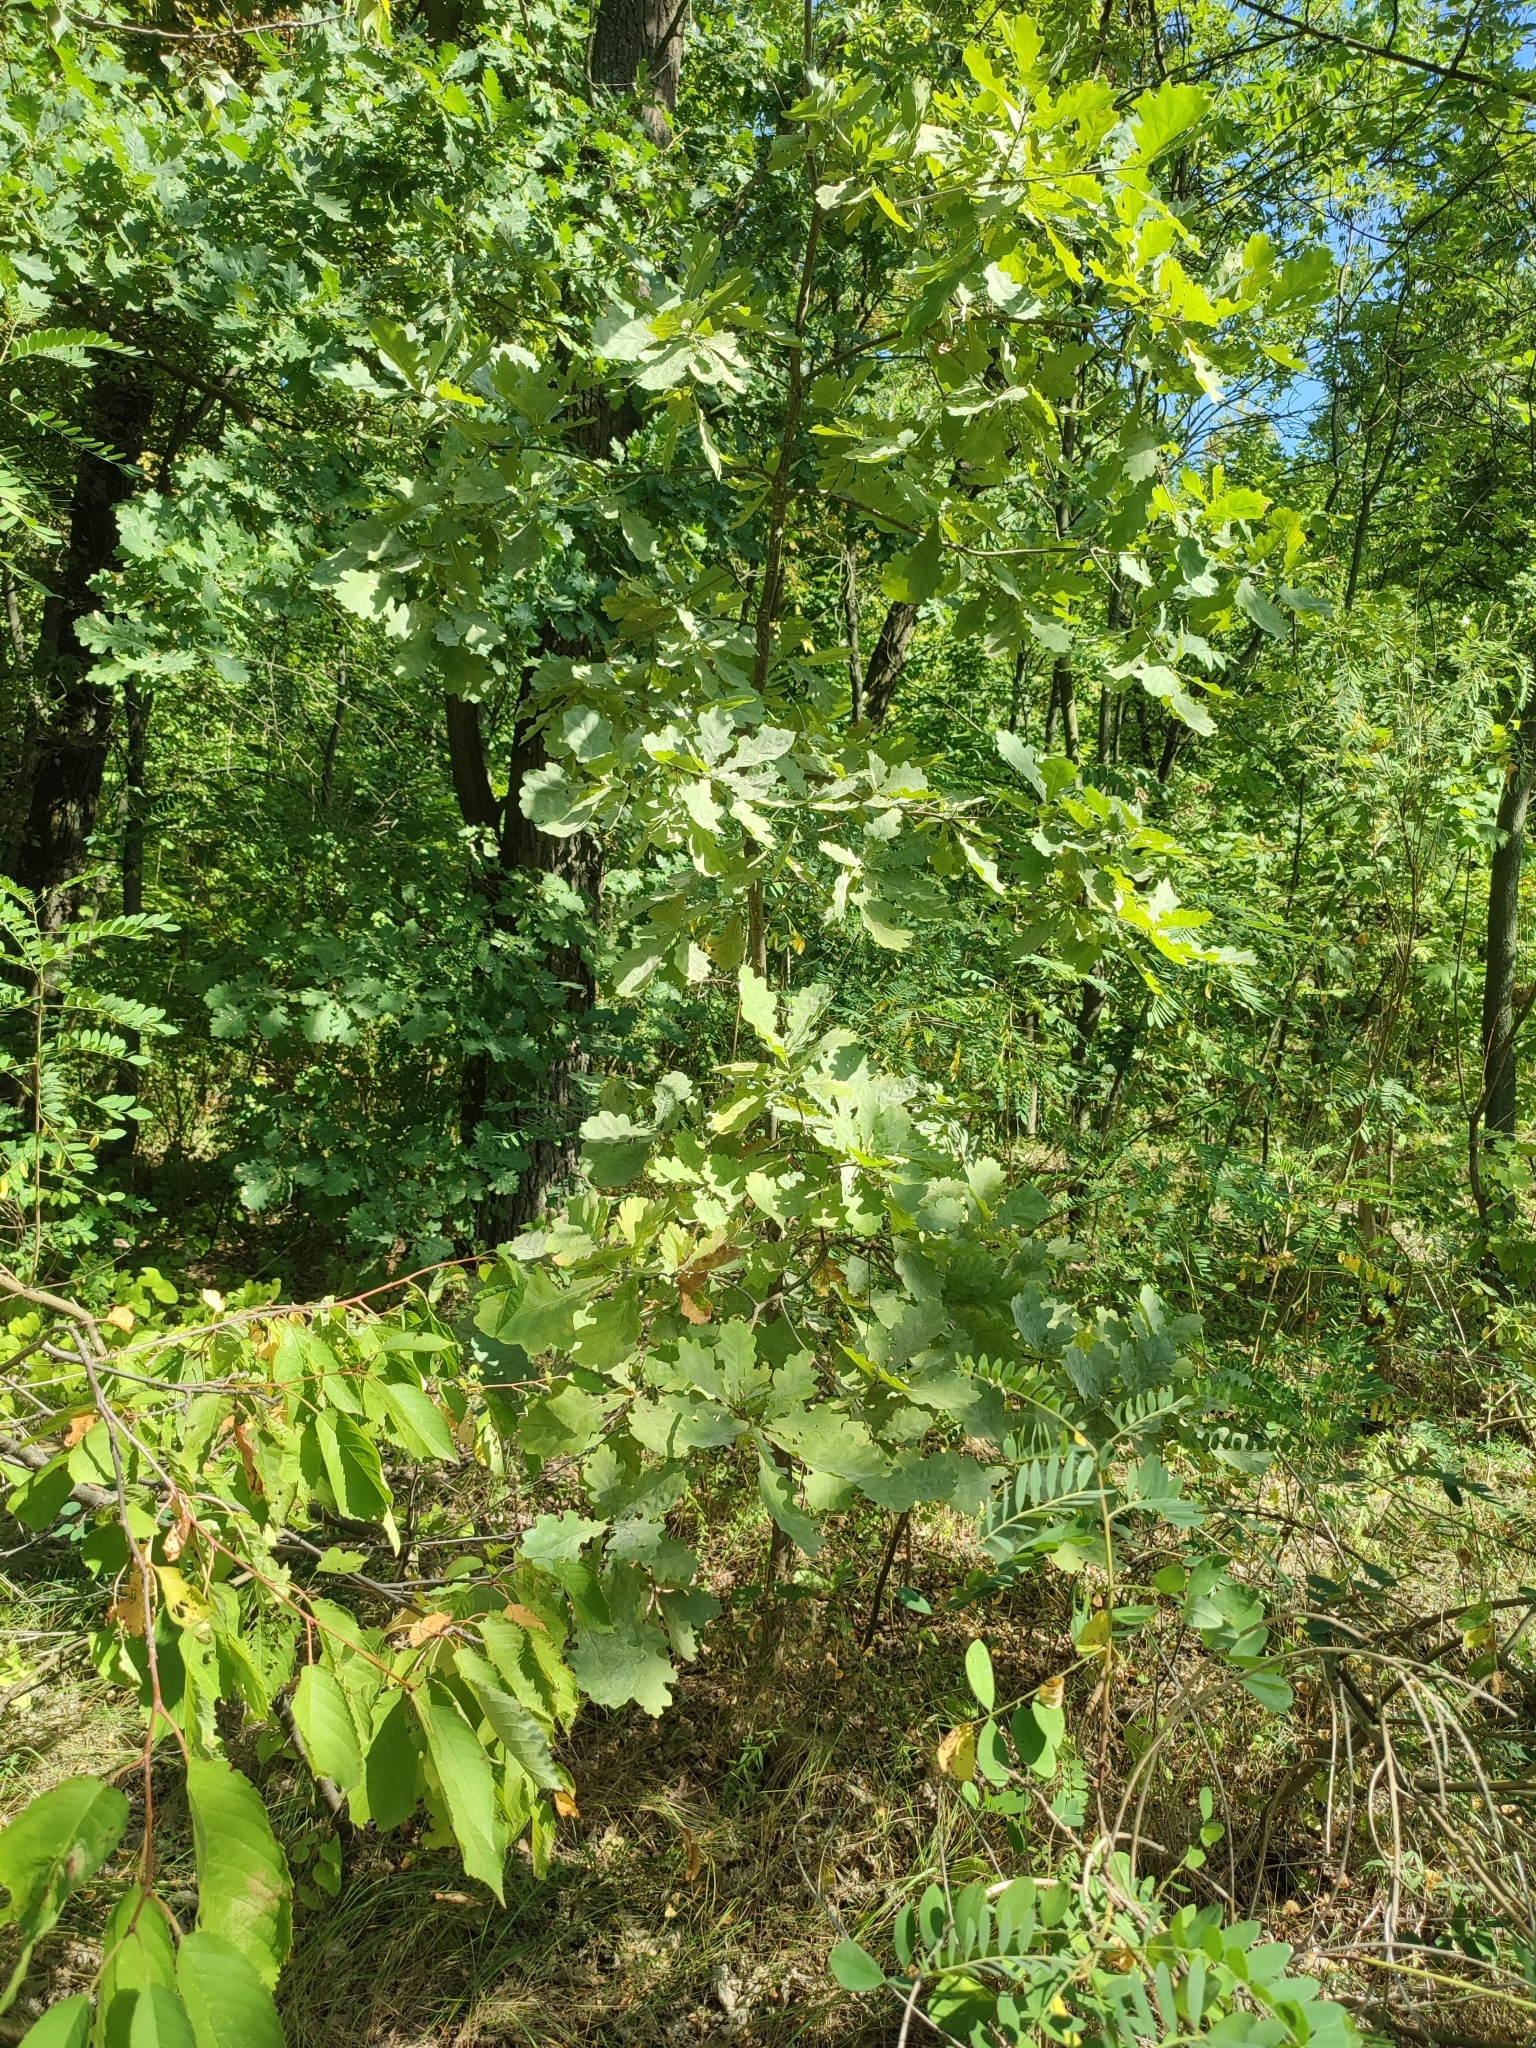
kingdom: Plantae
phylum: Tracheophyta
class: Magnoliopsida
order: Fagales
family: Fagaceae
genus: Quercus
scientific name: Quercus robur
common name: Pedunculate oak
